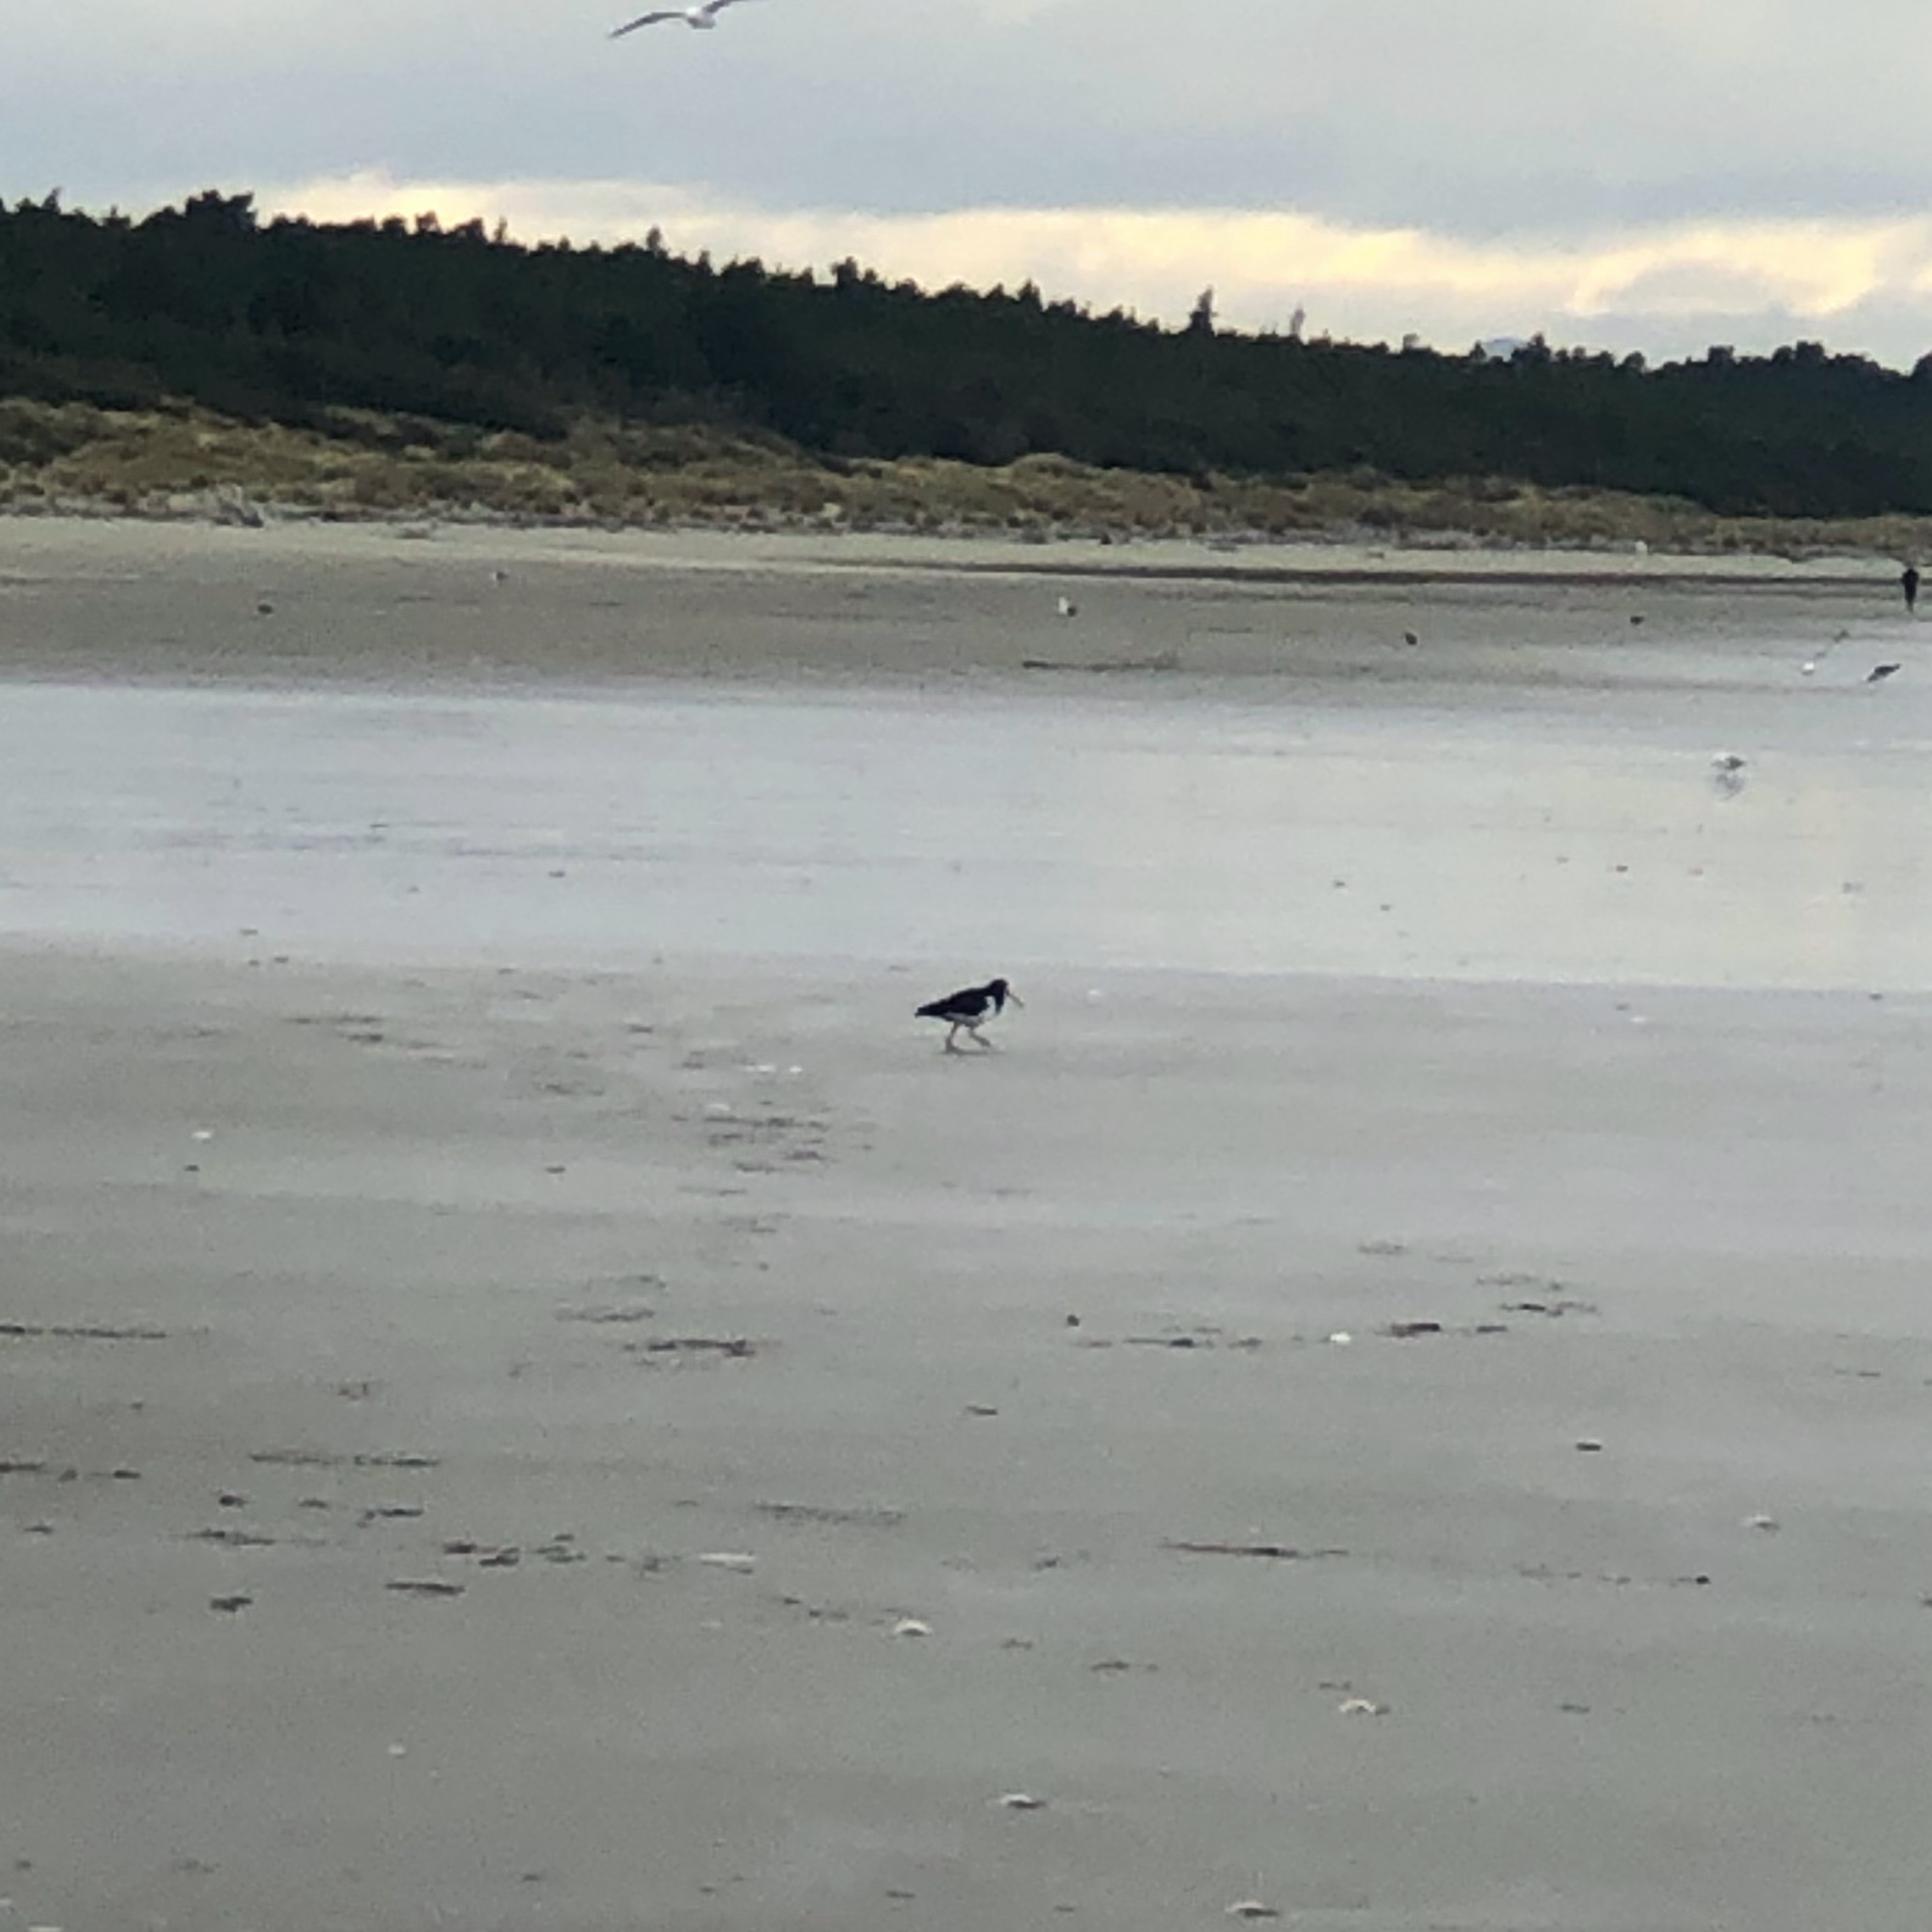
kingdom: Animalia
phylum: Chordata
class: Aves
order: Charadriiformes
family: Haematopodidae
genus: Haematopus
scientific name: Haematopus finschi
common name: South island oystercatcher
